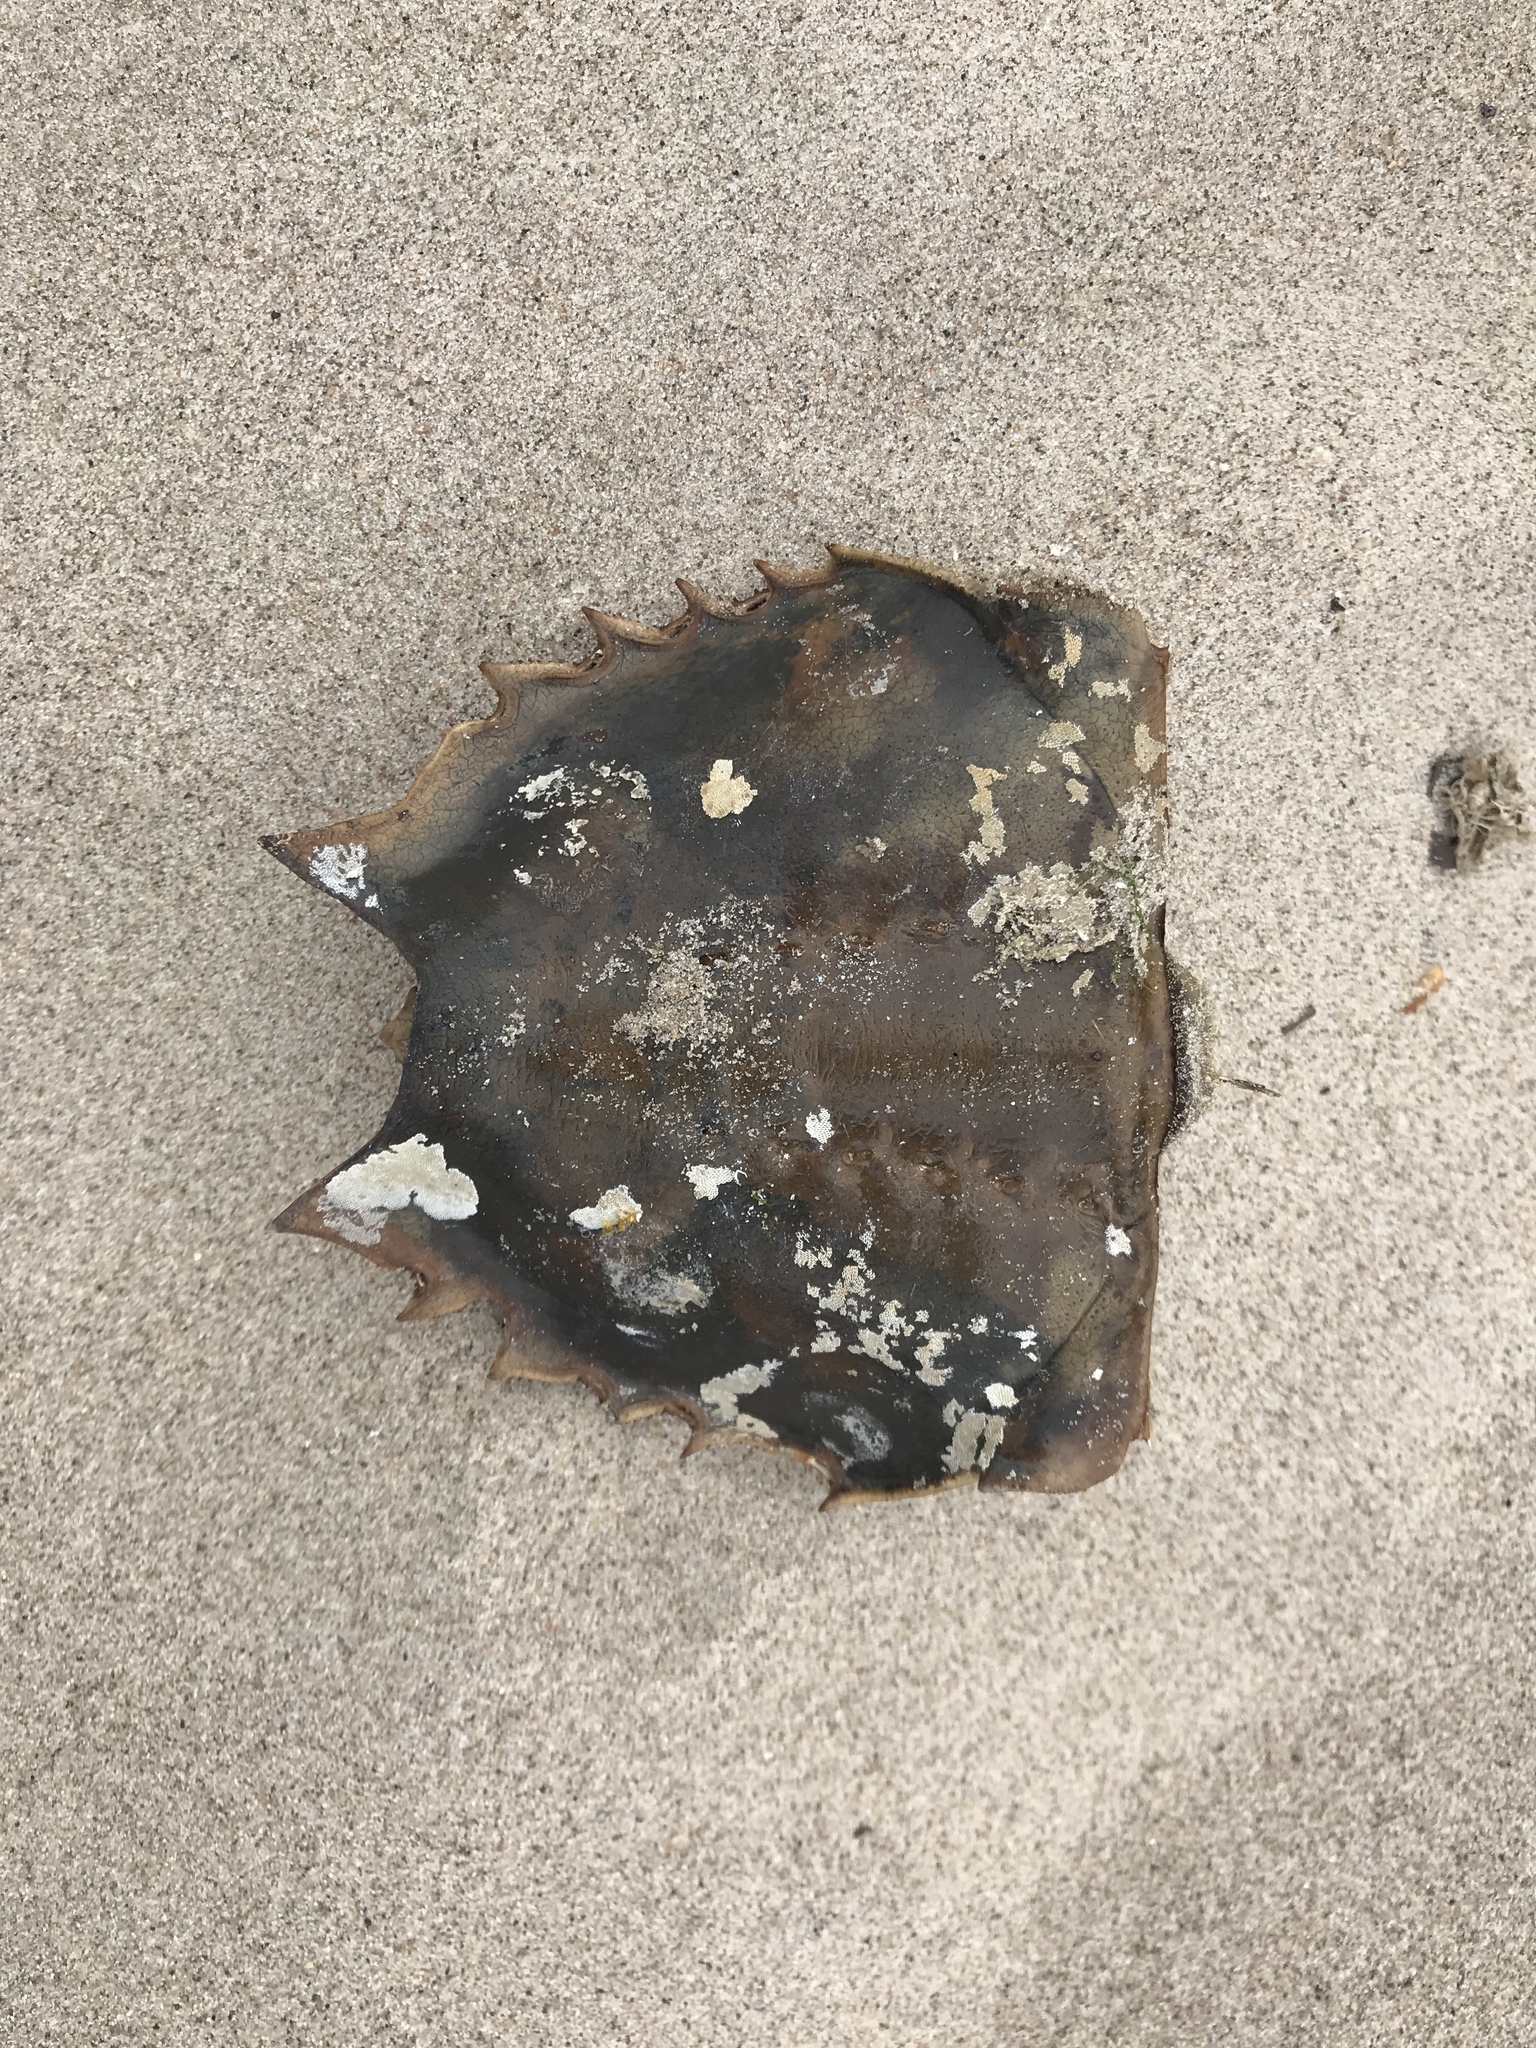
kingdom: Animalia
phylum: Arthropoda
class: Merostomata
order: Xiphosurida
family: Limulidae
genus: Limulus
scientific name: Limulus polyphemus
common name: Horseshoe crab
